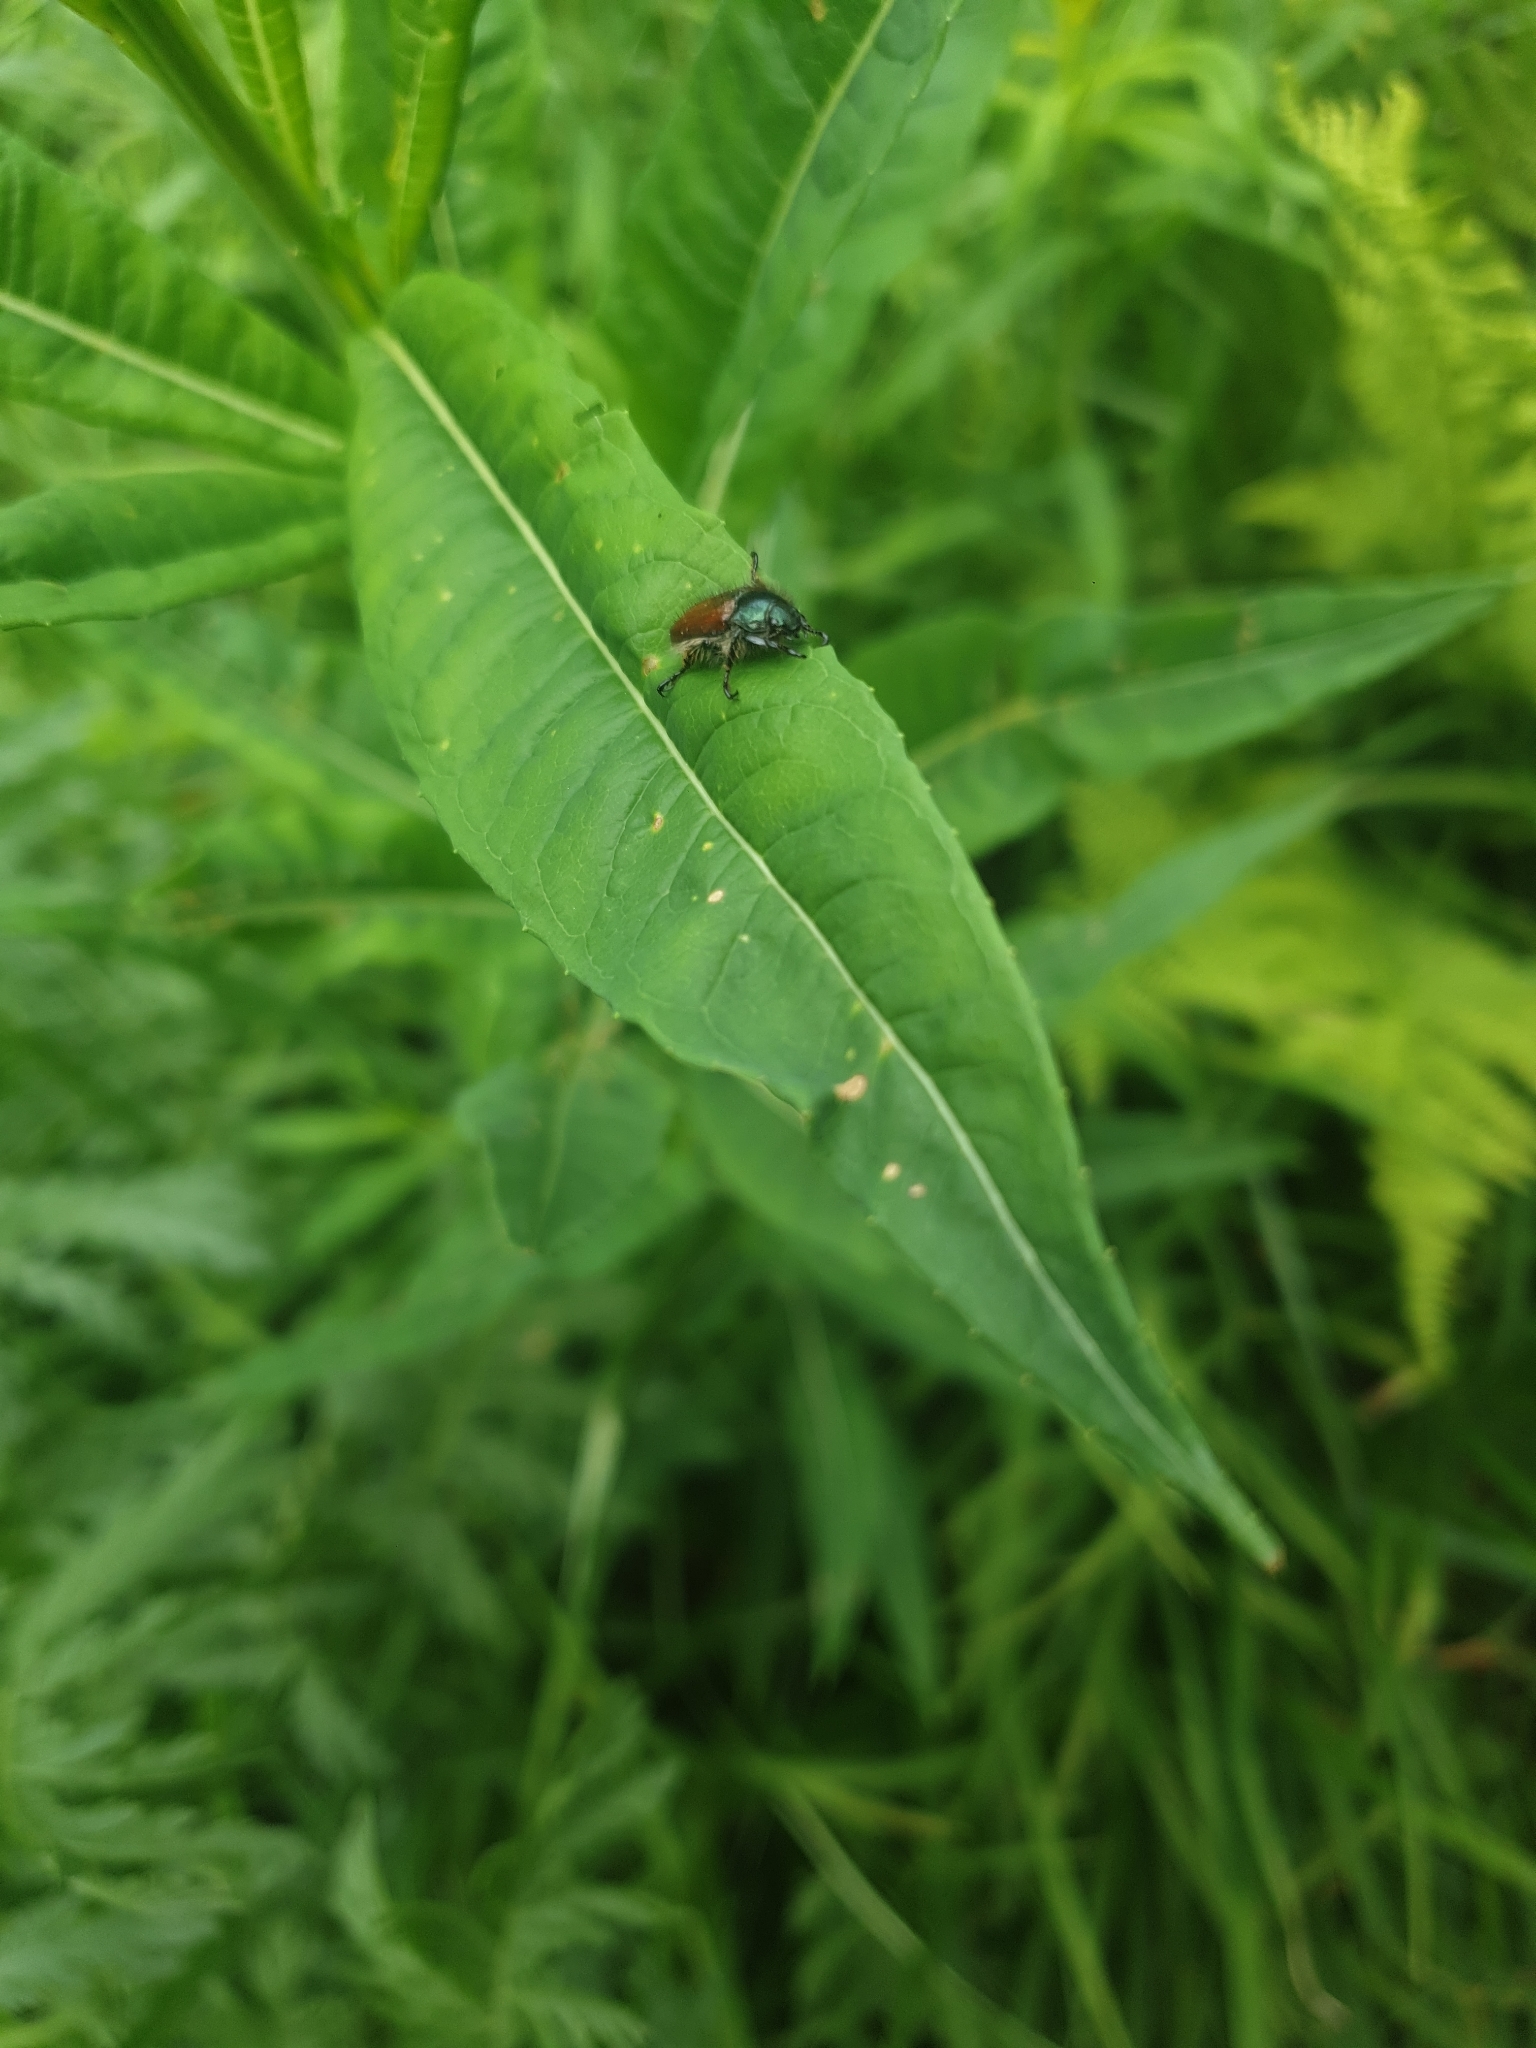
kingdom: Animalia
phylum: Arthropoda
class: Insecta
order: Coleoptera
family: Scarabaeidae
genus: Phyllopertha
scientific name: Phyllopertha horticola
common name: Garden chafer
